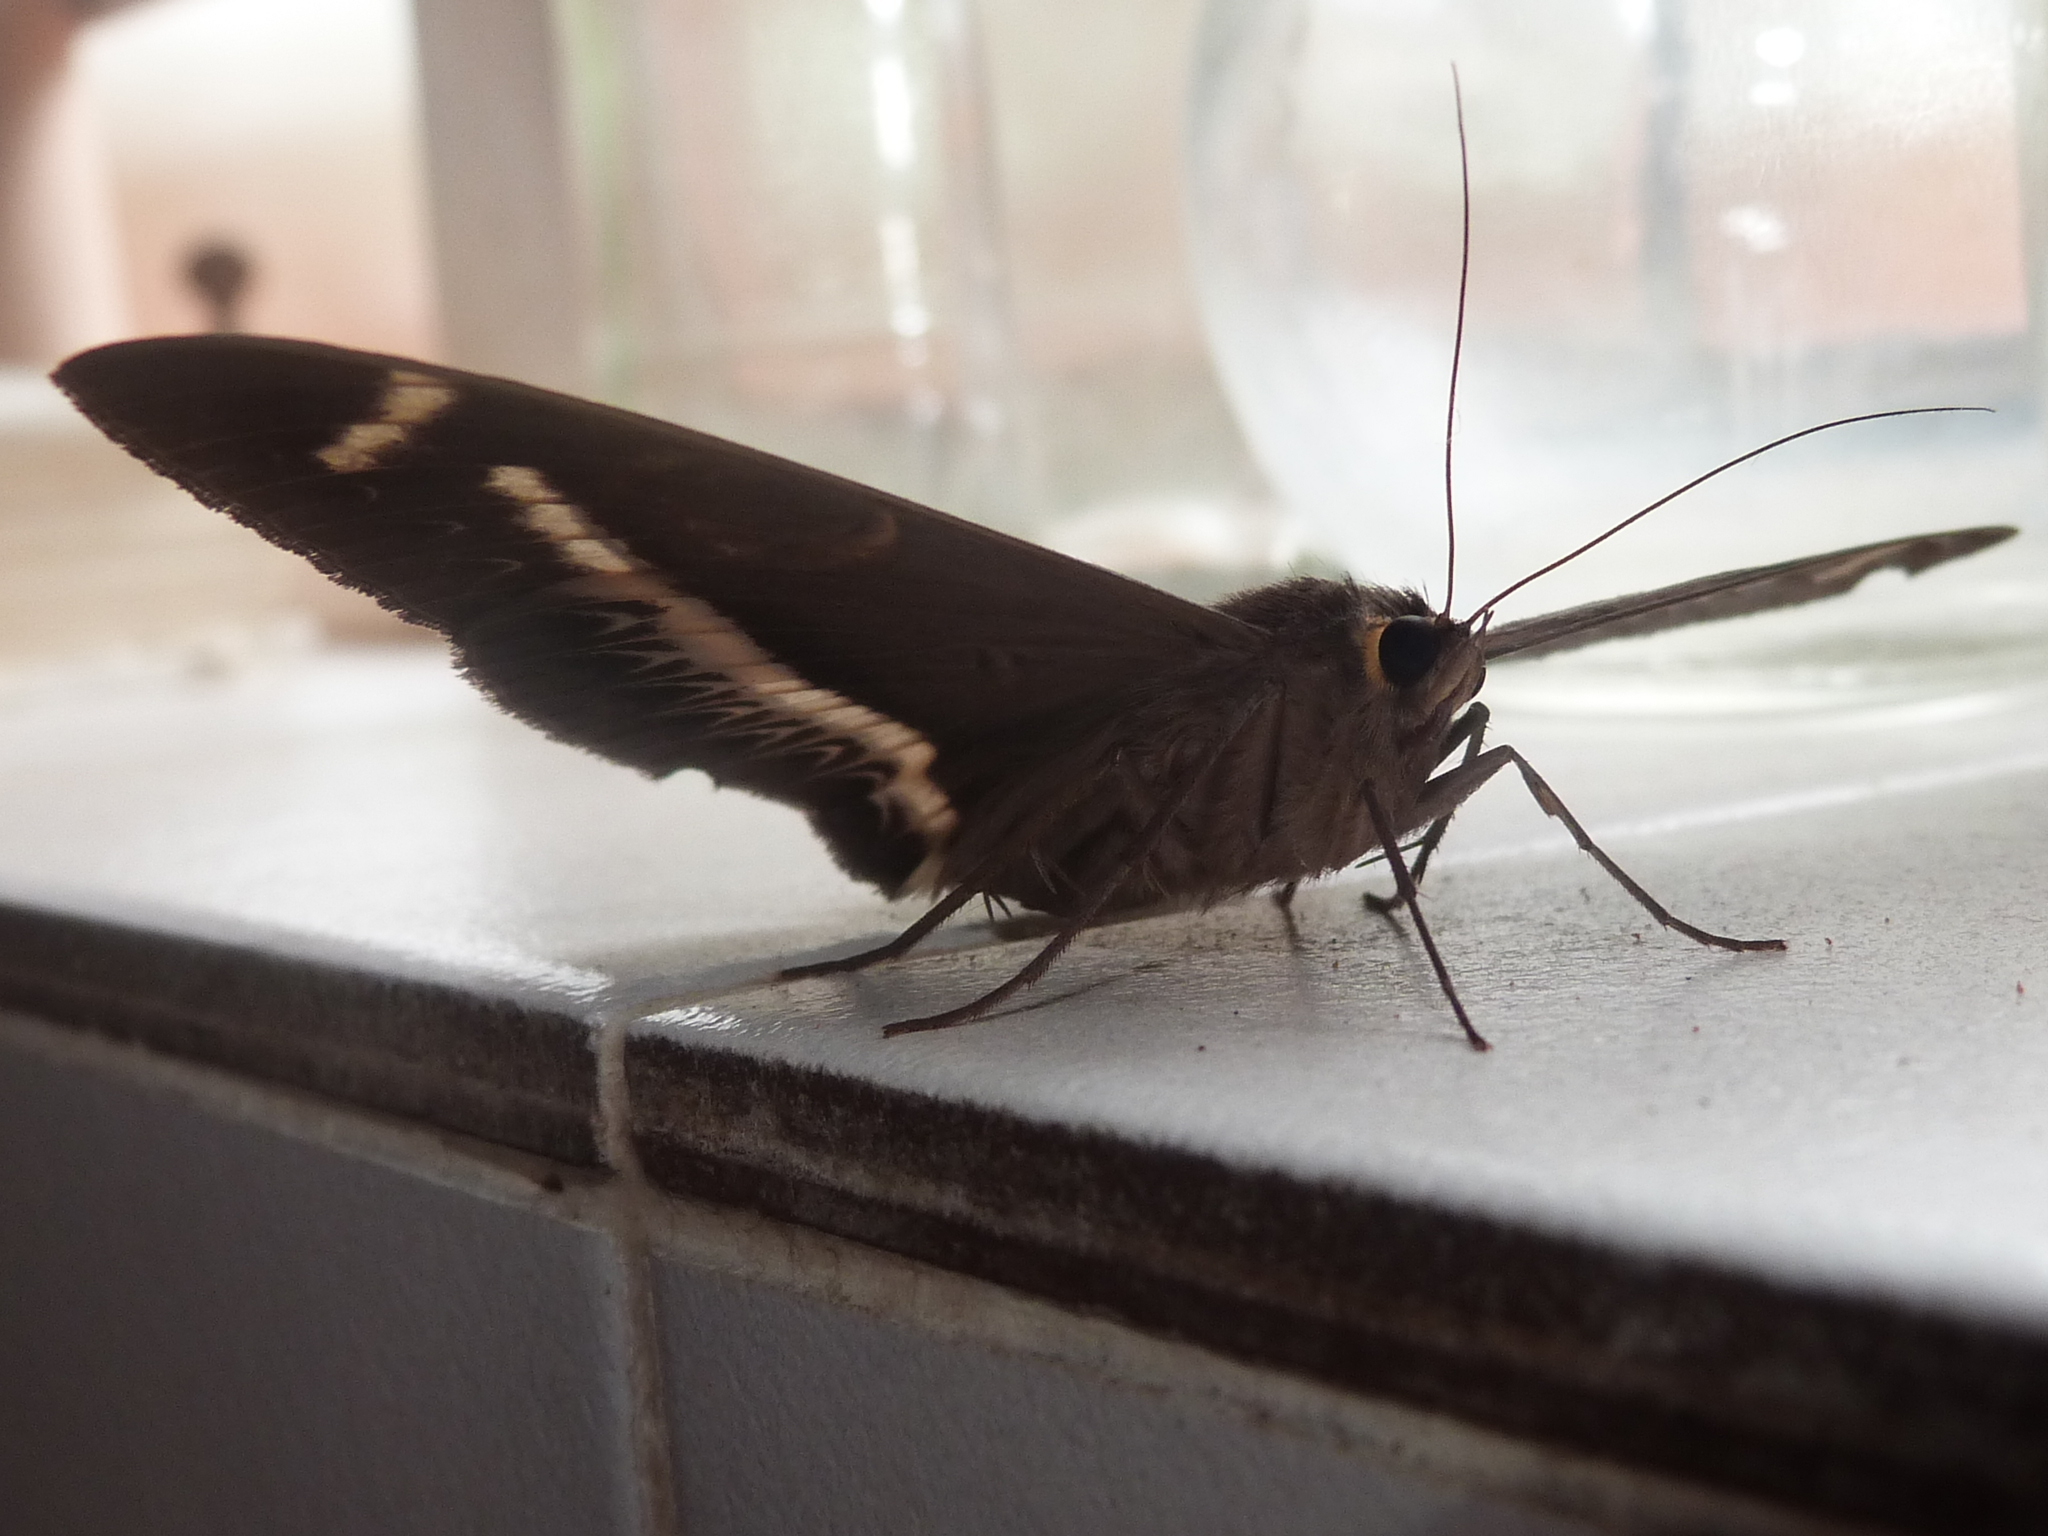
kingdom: Animalia
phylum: Arthropoda
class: Insecta
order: Lepidoptera
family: Erebidae
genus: Cyligramma
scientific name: Cyligramma latona
